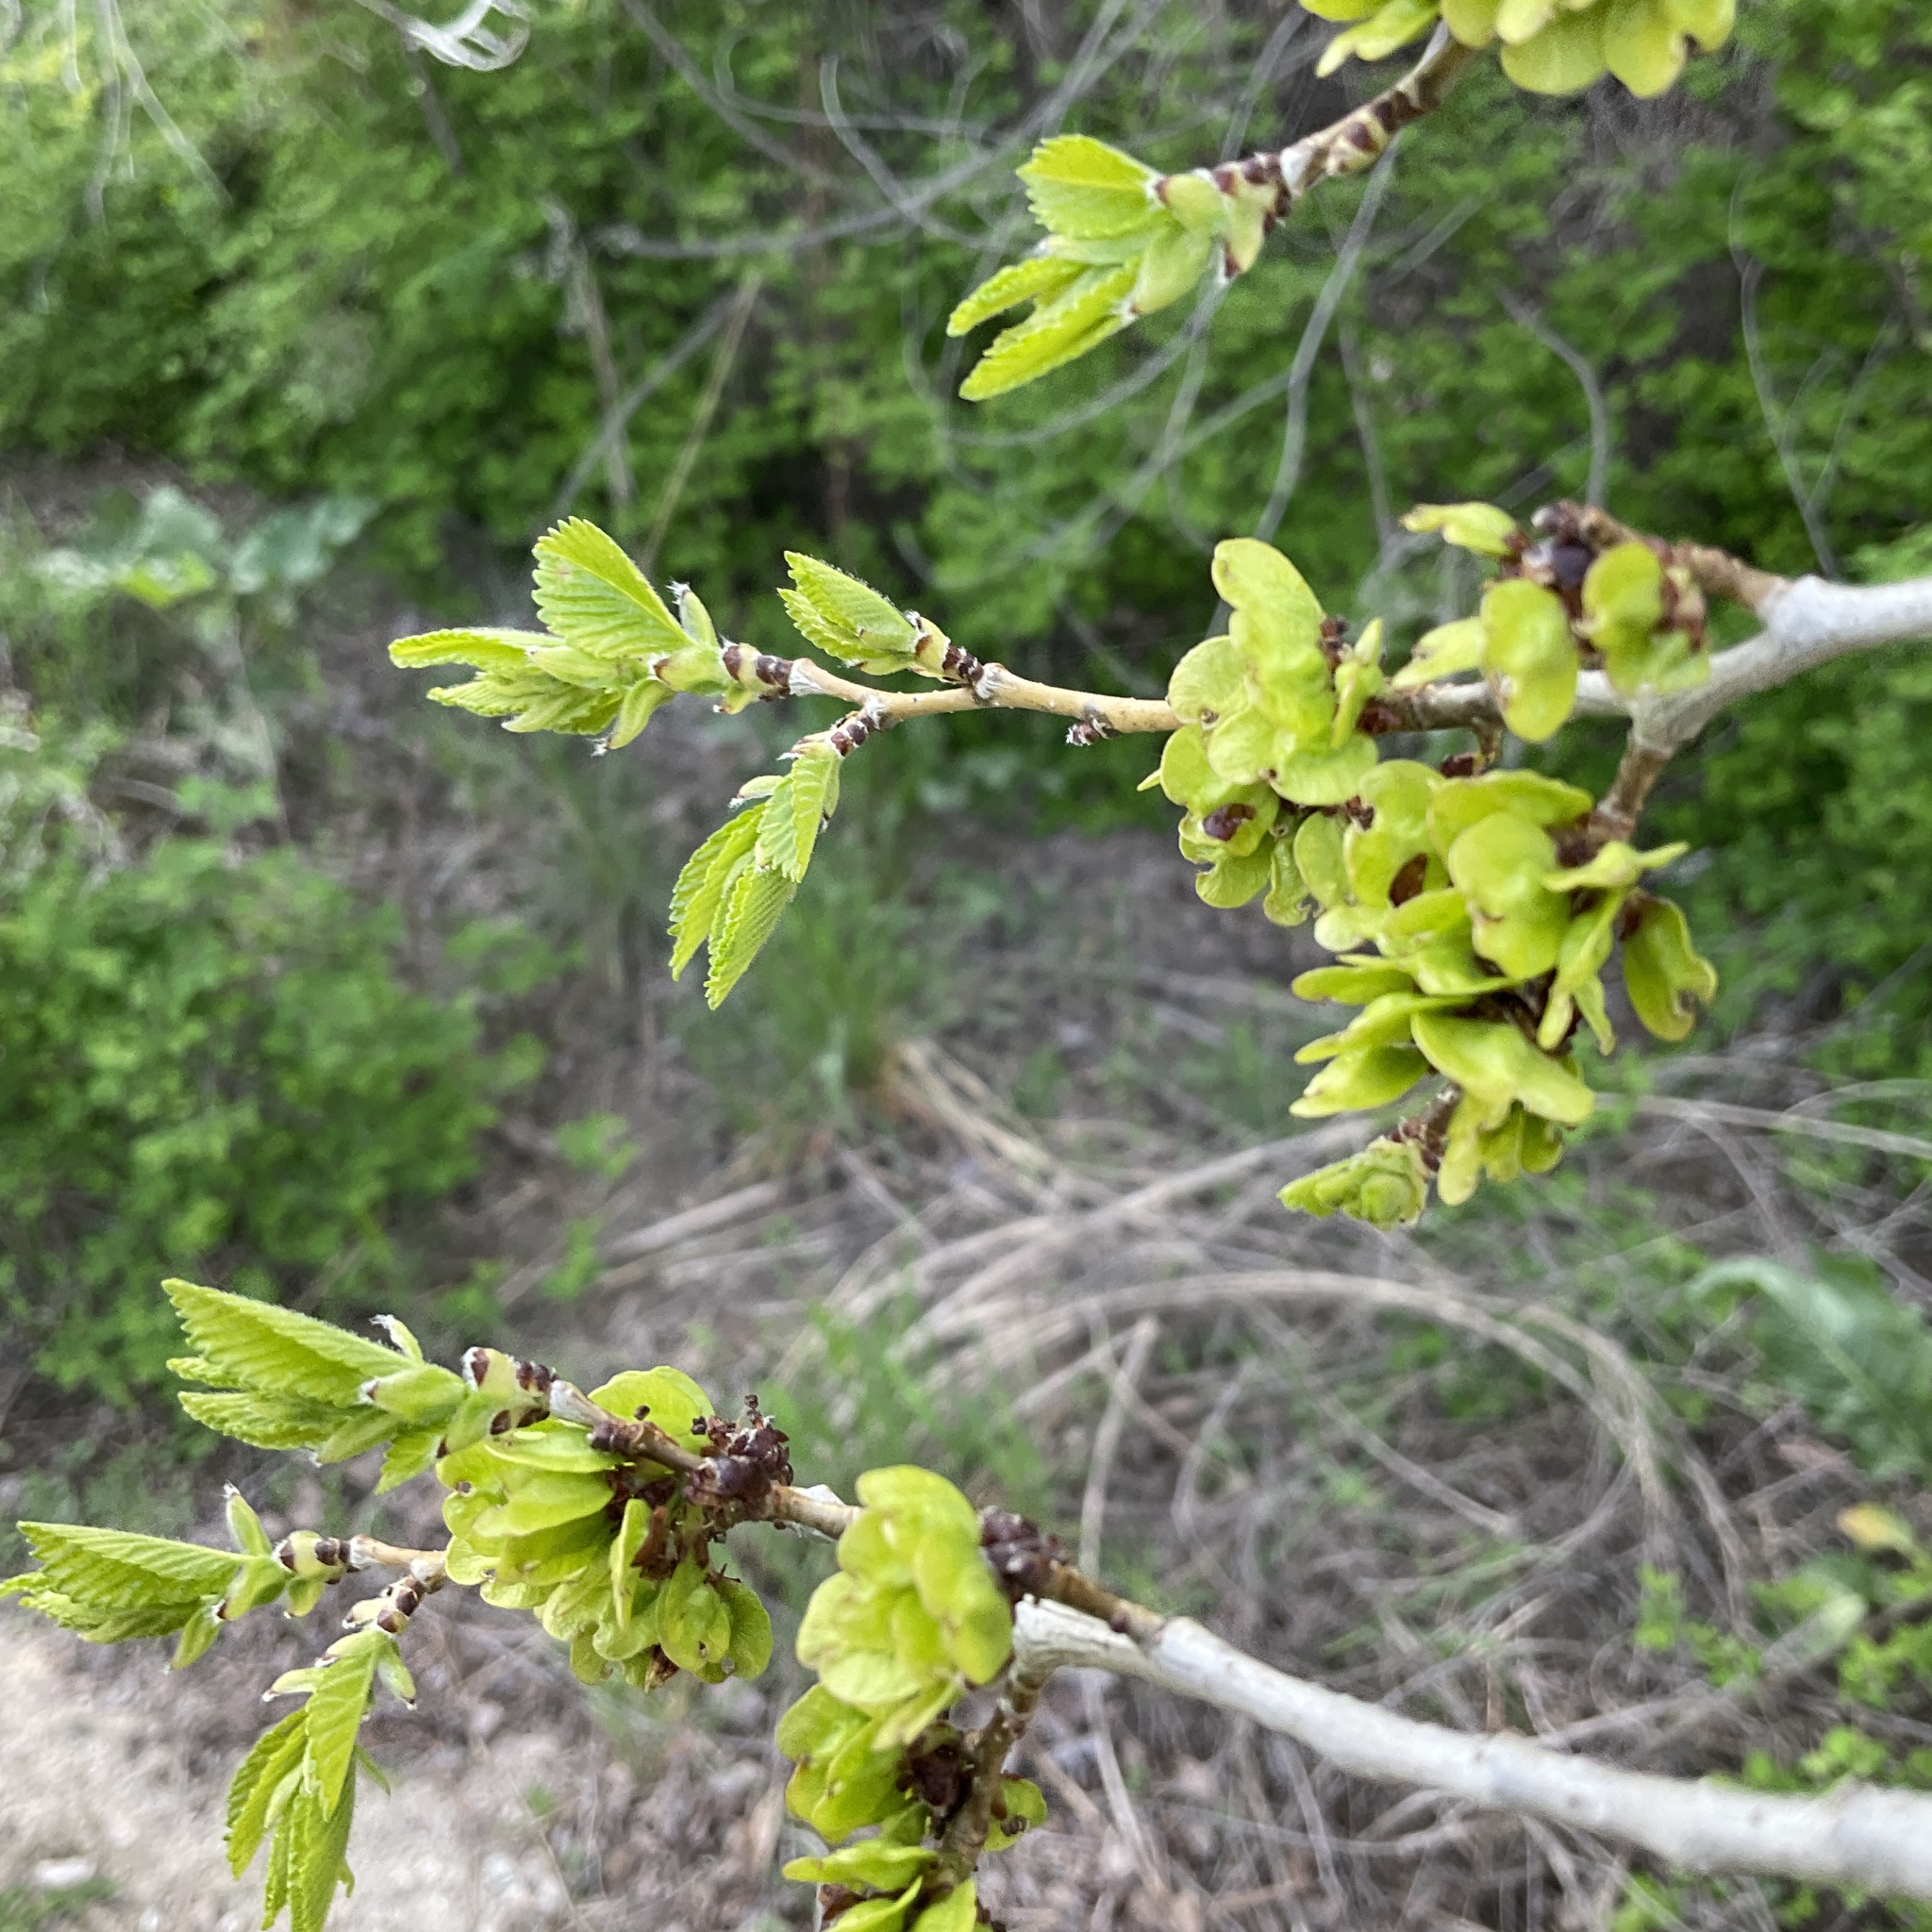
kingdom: Plantae
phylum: Tracheophyta
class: Magnoliopsida
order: Rosales
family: Ulmaceae
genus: Ulmus
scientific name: Ulmus pumila
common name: Siberian elm
